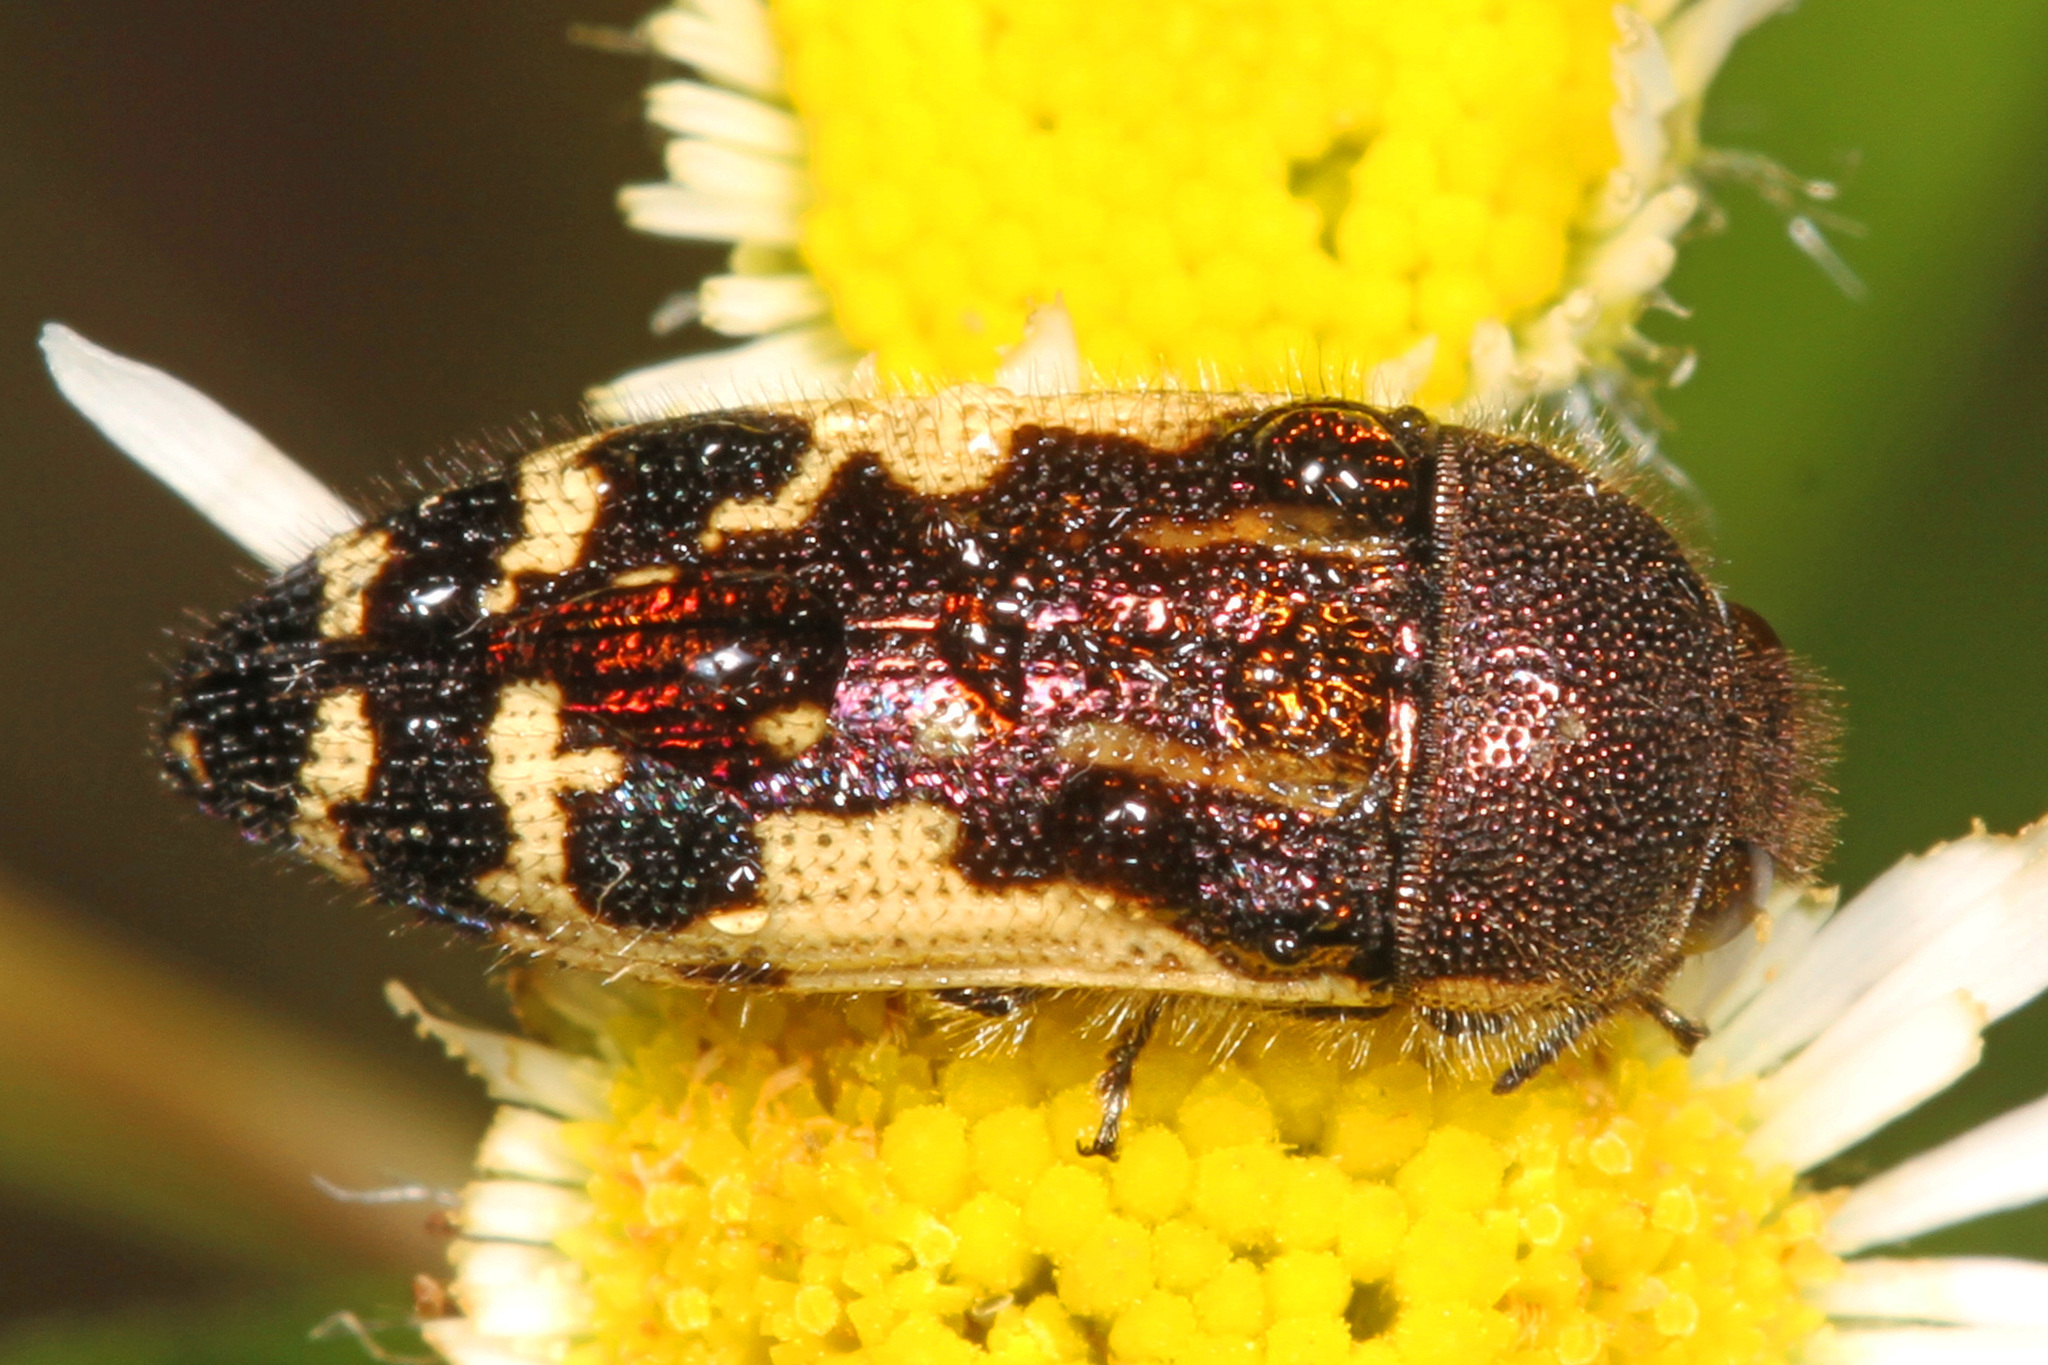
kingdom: Animalia
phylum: Arthropoda
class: Insecta
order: Coleoptera
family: Buprestidae
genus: Acmaeodera
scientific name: Acmaeodera pulchella
